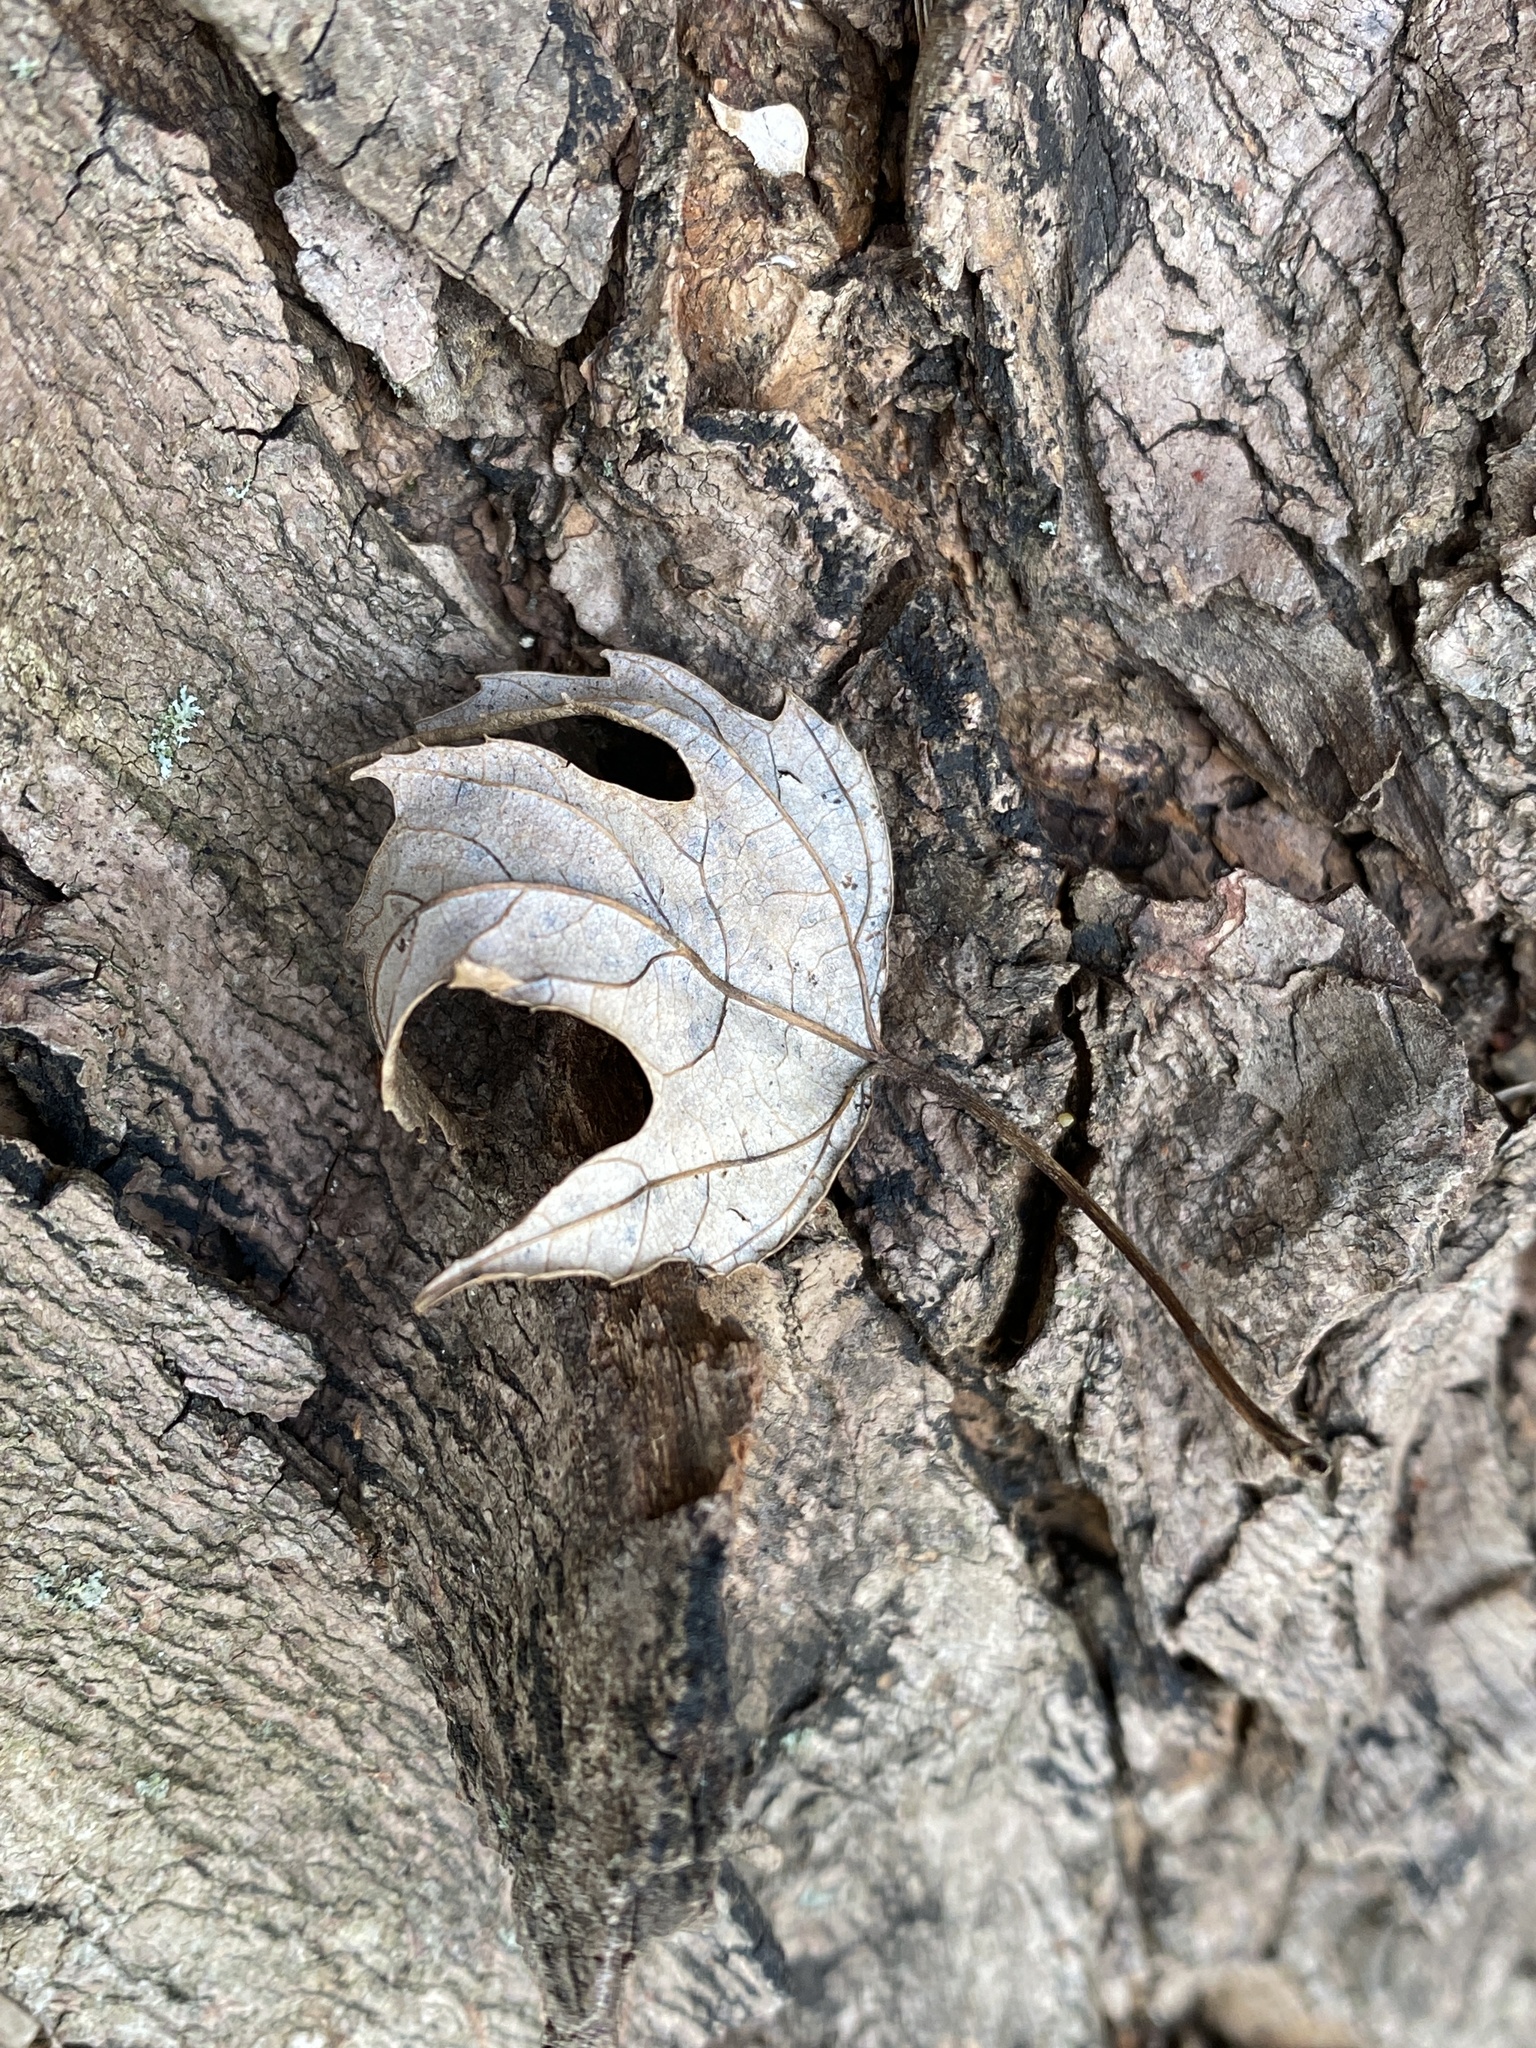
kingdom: Plantae
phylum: Tracheophyta
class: Magnoliopsida
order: Sapindales
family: Sapindaceae
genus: Acer
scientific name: Acer saccharinum
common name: Silver maple
